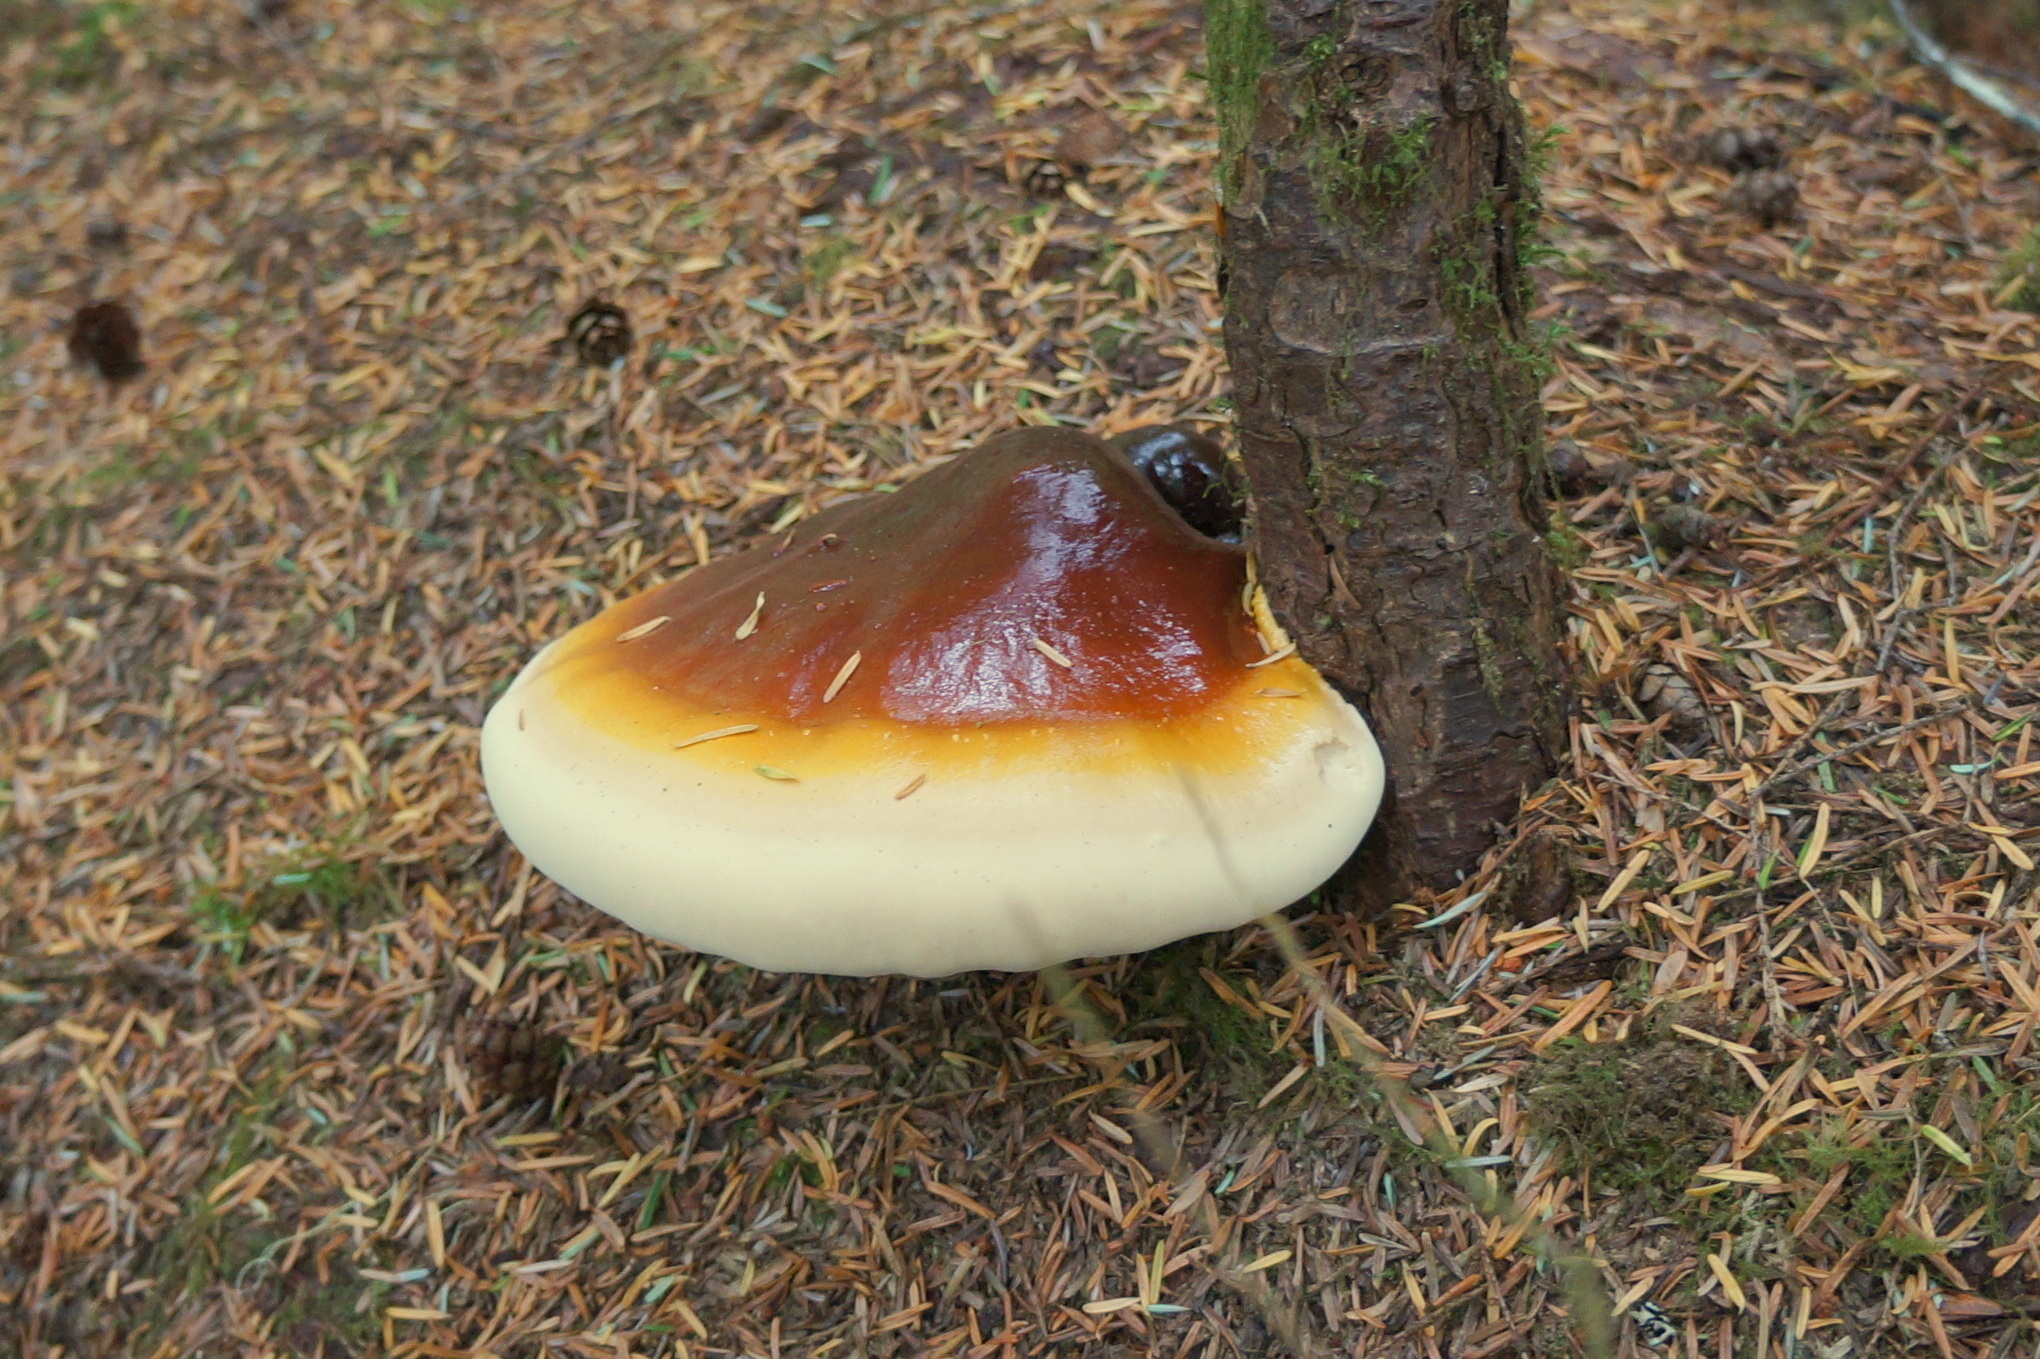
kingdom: Fungi
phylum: Basidiomycota
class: Agaricomycetes
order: Polyporales
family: Polyporaceae
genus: Ganoderma
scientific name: Ganoderma oregonense
